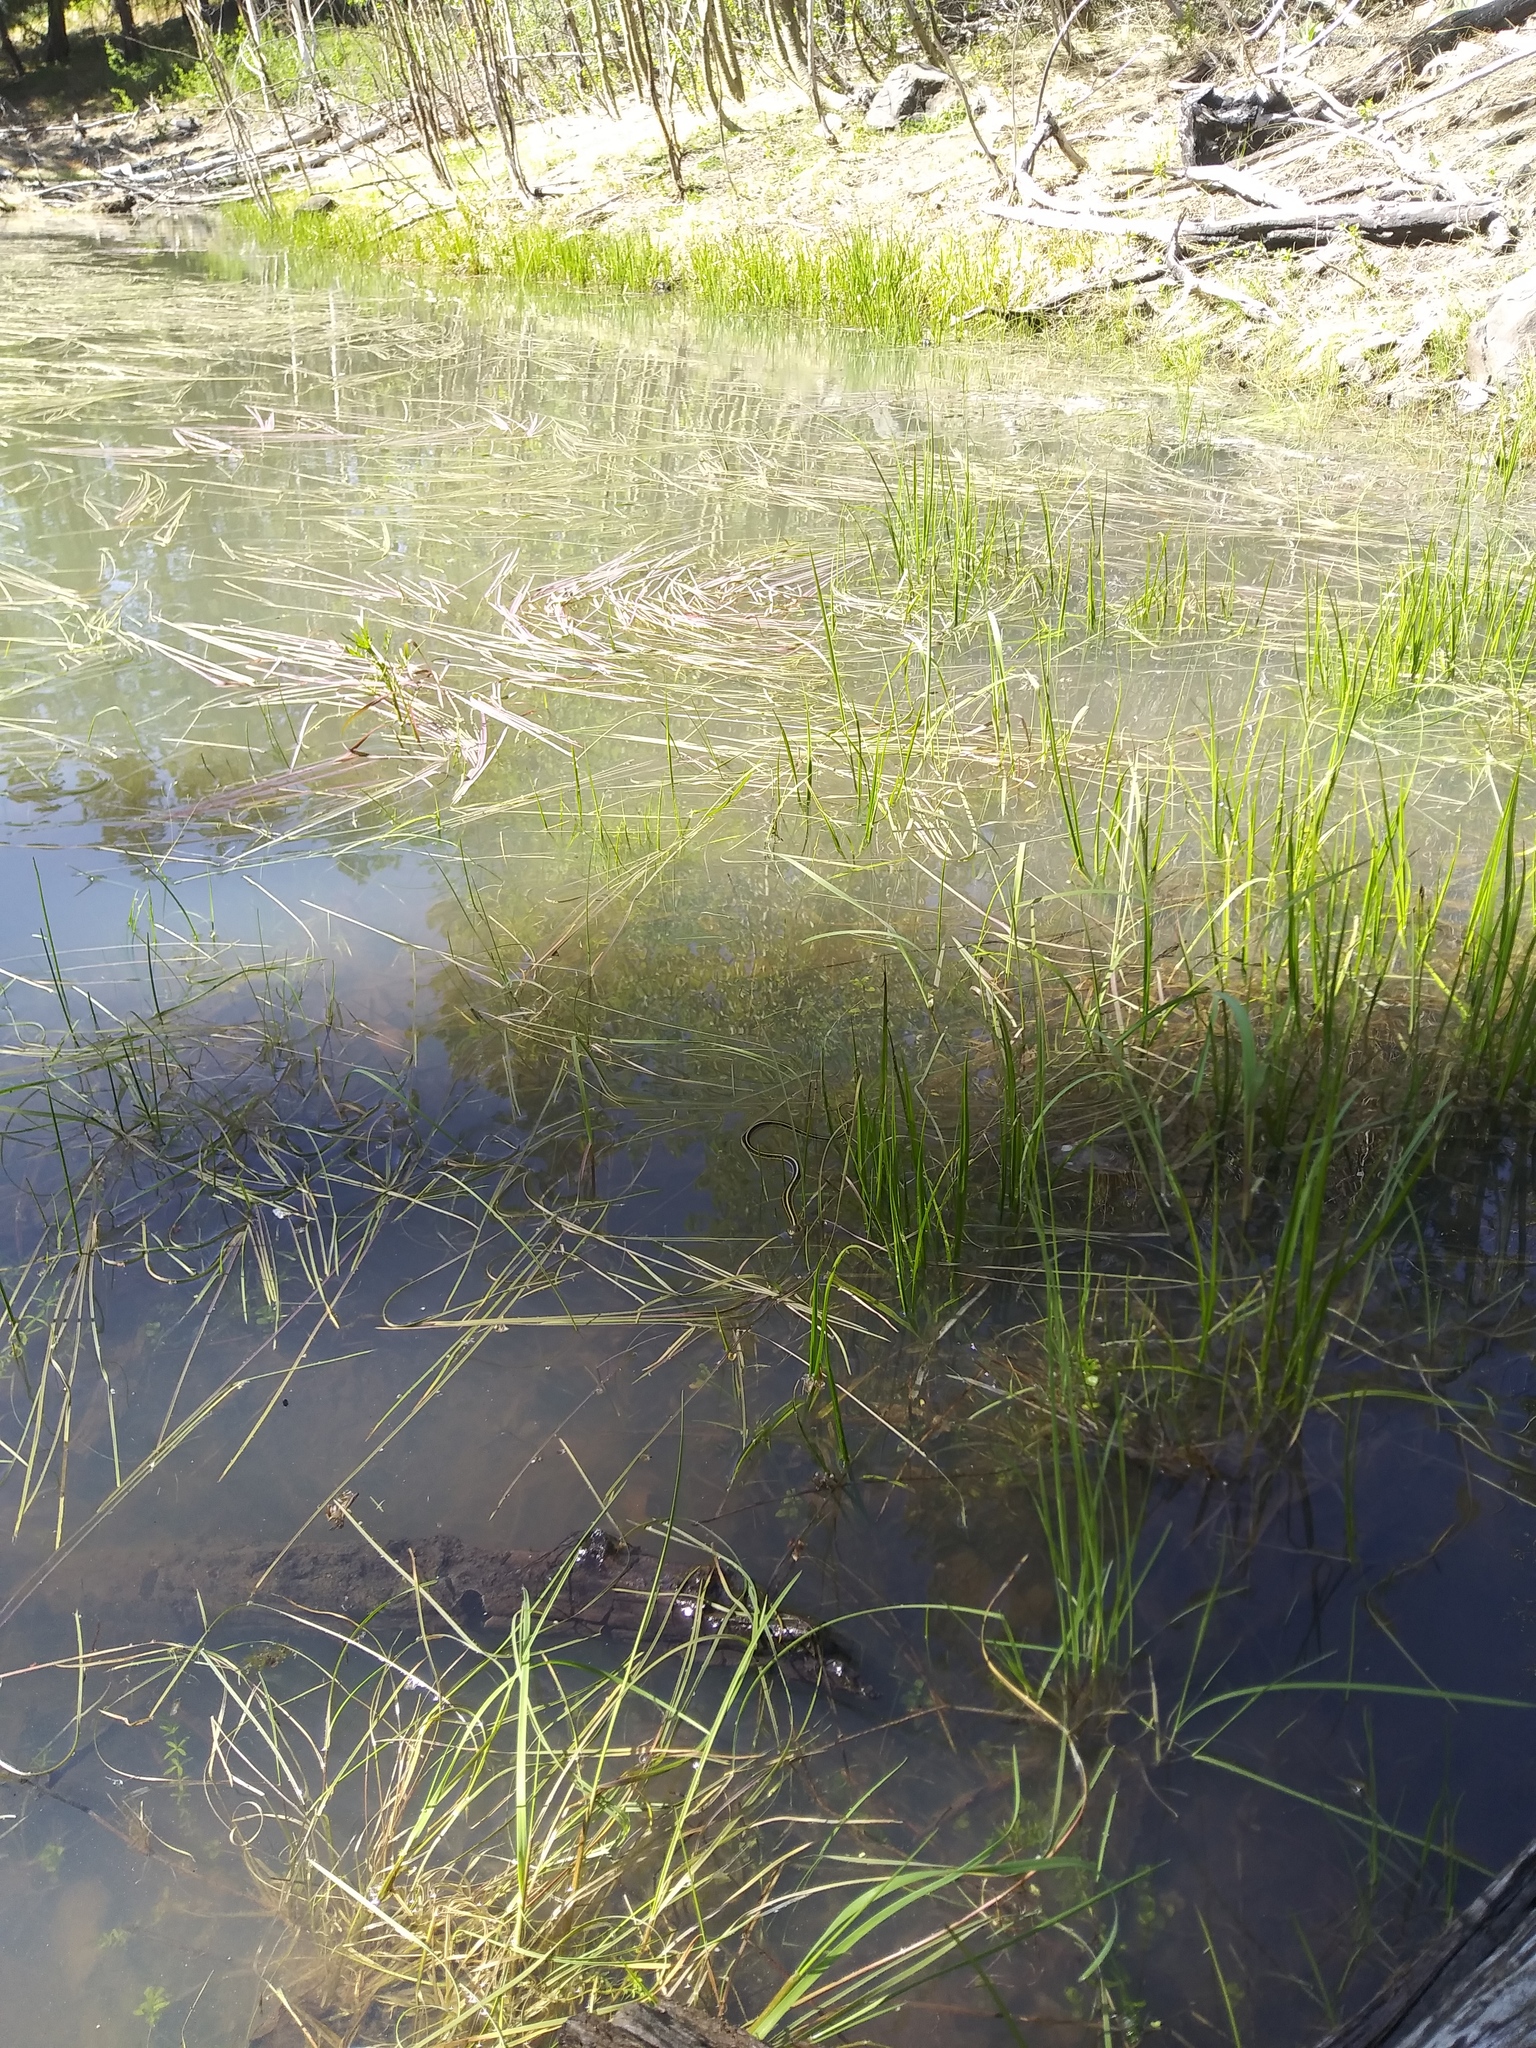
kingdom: Animalia
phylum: Chordata
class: Squamata
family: Colubridae
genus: Thamnophis
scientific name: Thamnophis sirtalis
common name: Common garter snake
